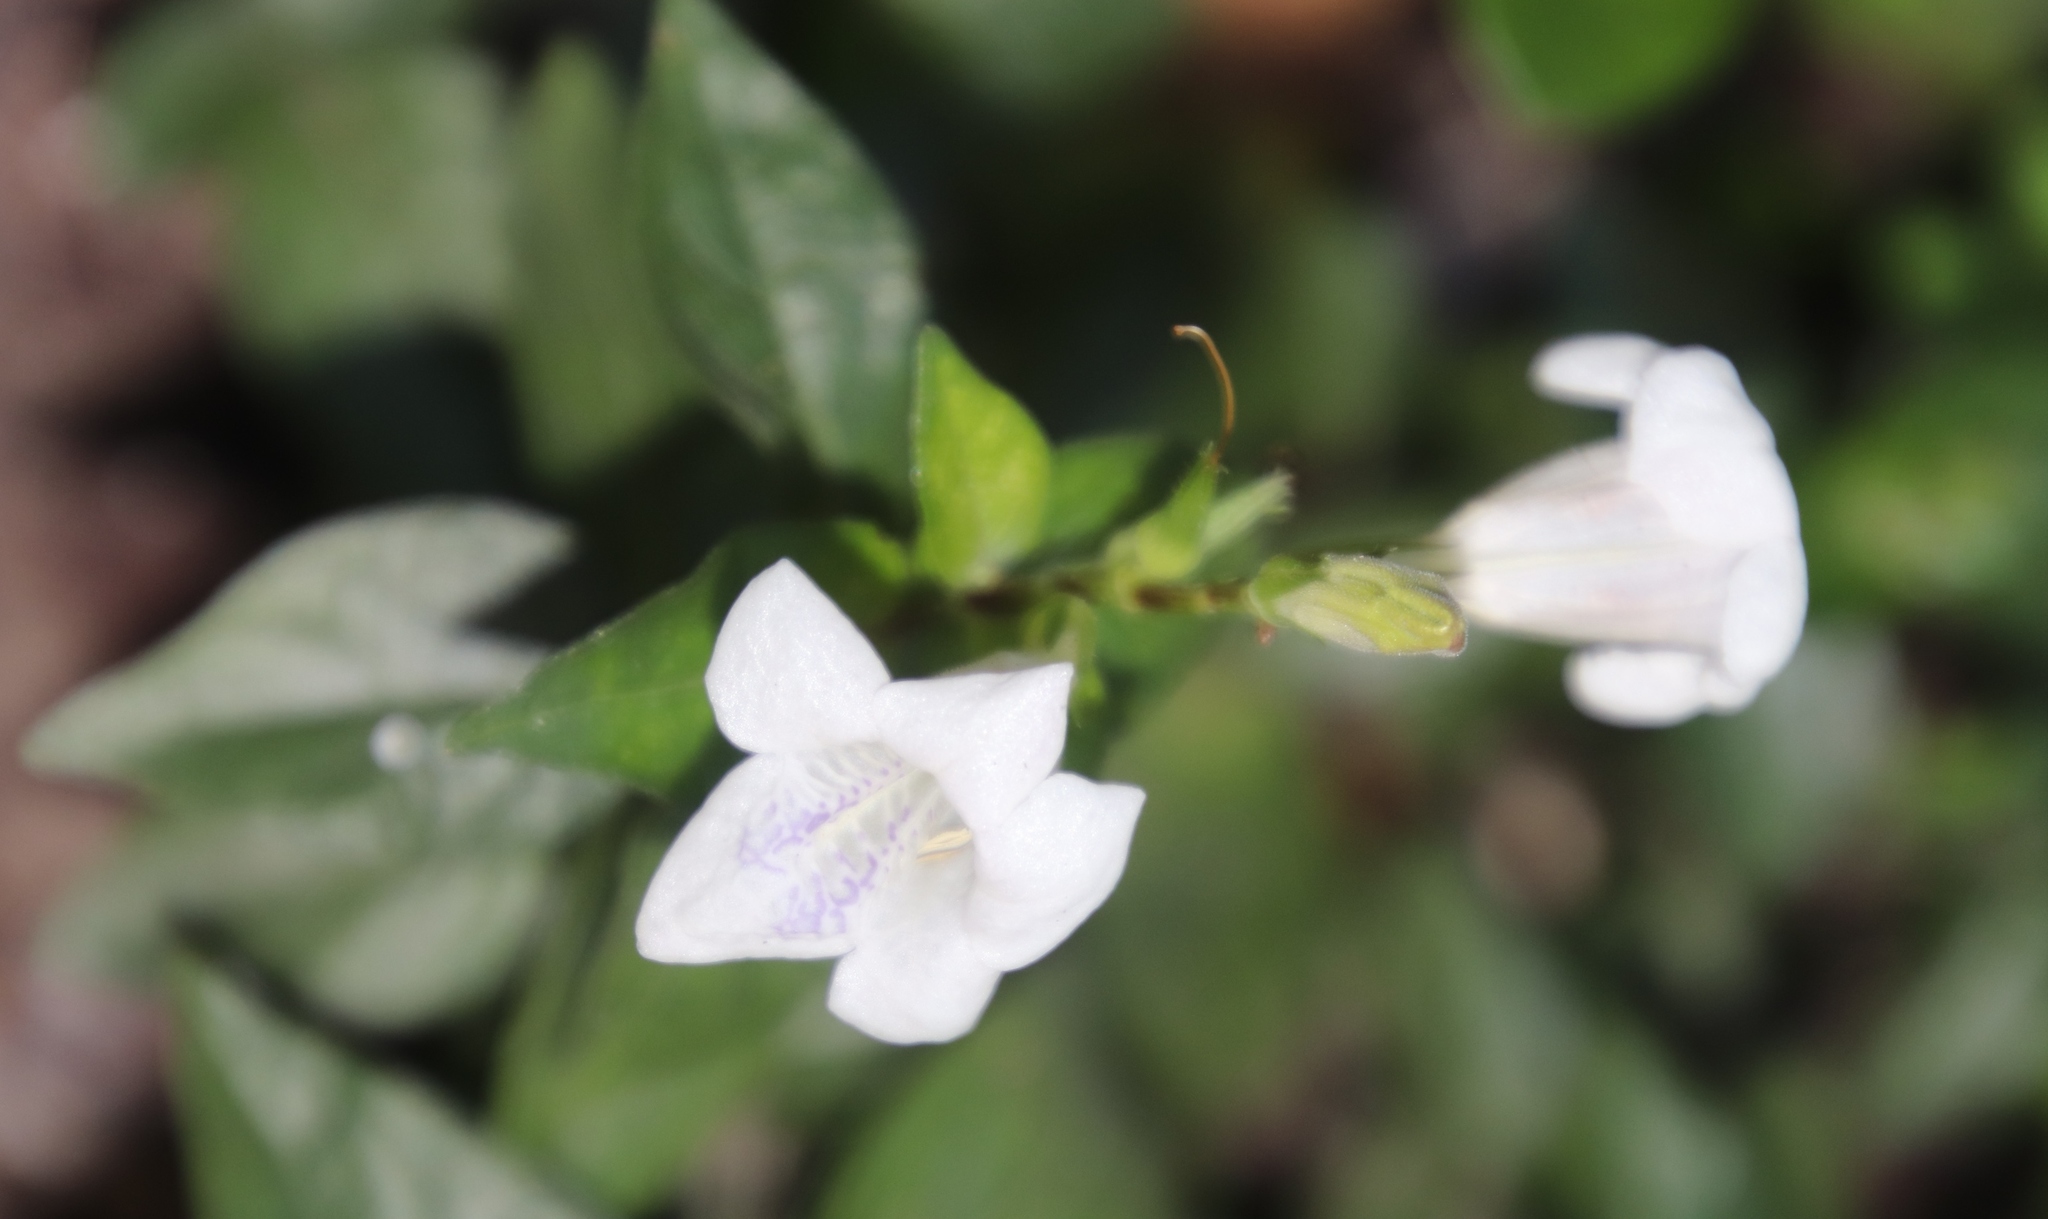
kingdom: Plantae
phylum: Tracheophyta
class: Magnoliopsida
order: Lamiales
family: Acanthaceae
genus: Asystasia
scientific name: Asystasia intrusa
